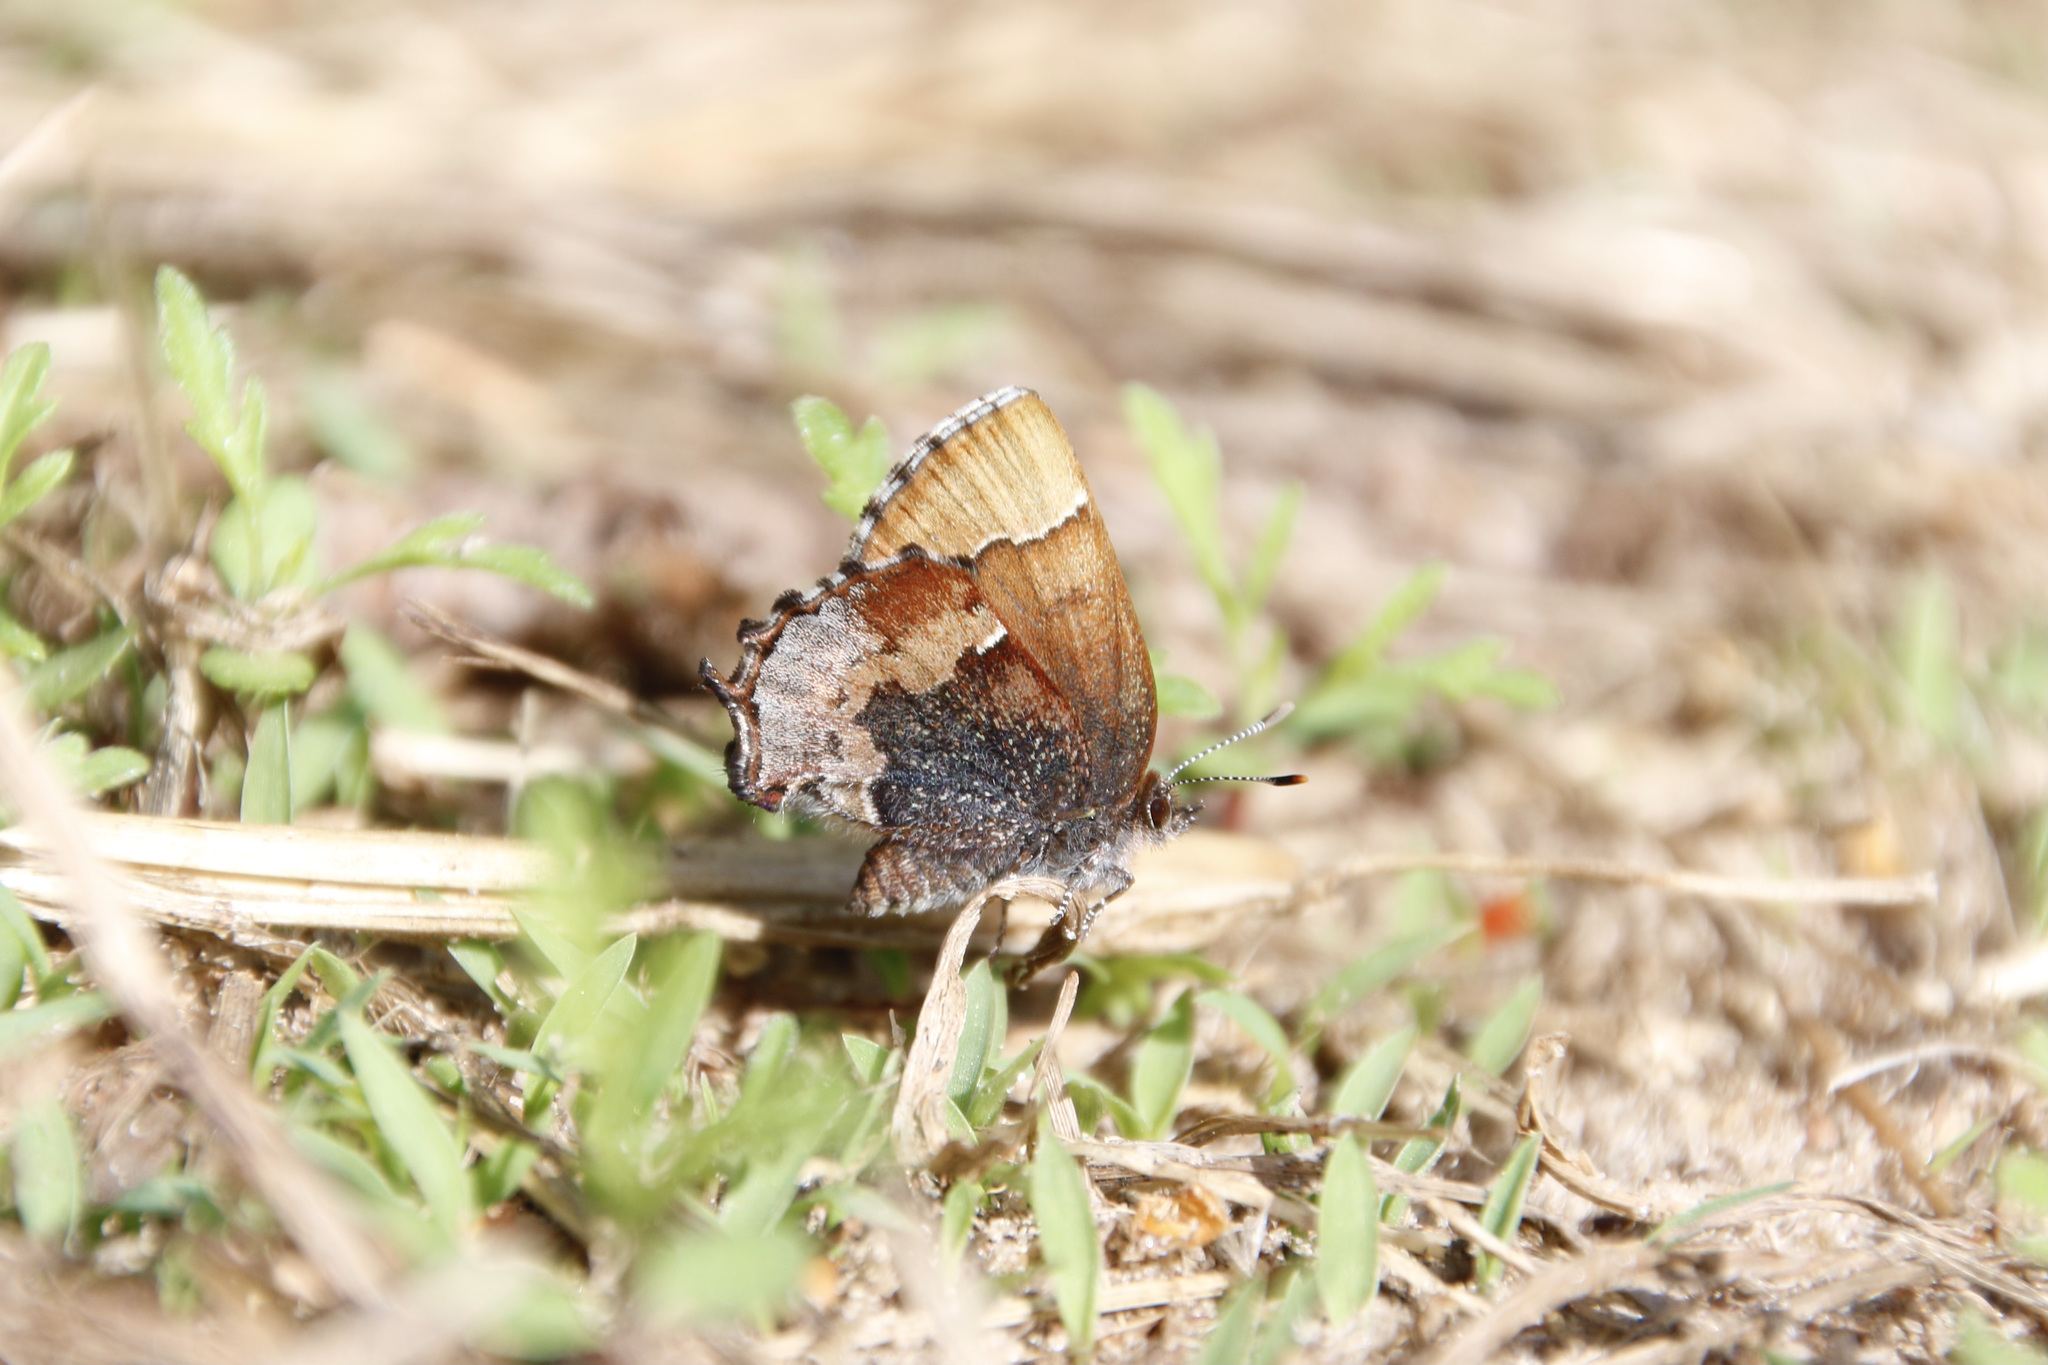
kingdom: Animalia
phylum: Arthropoda
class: Insecta
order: Lepidoptera
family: Lycaenidae
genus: Incisalia
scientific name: Incisalia henrici
